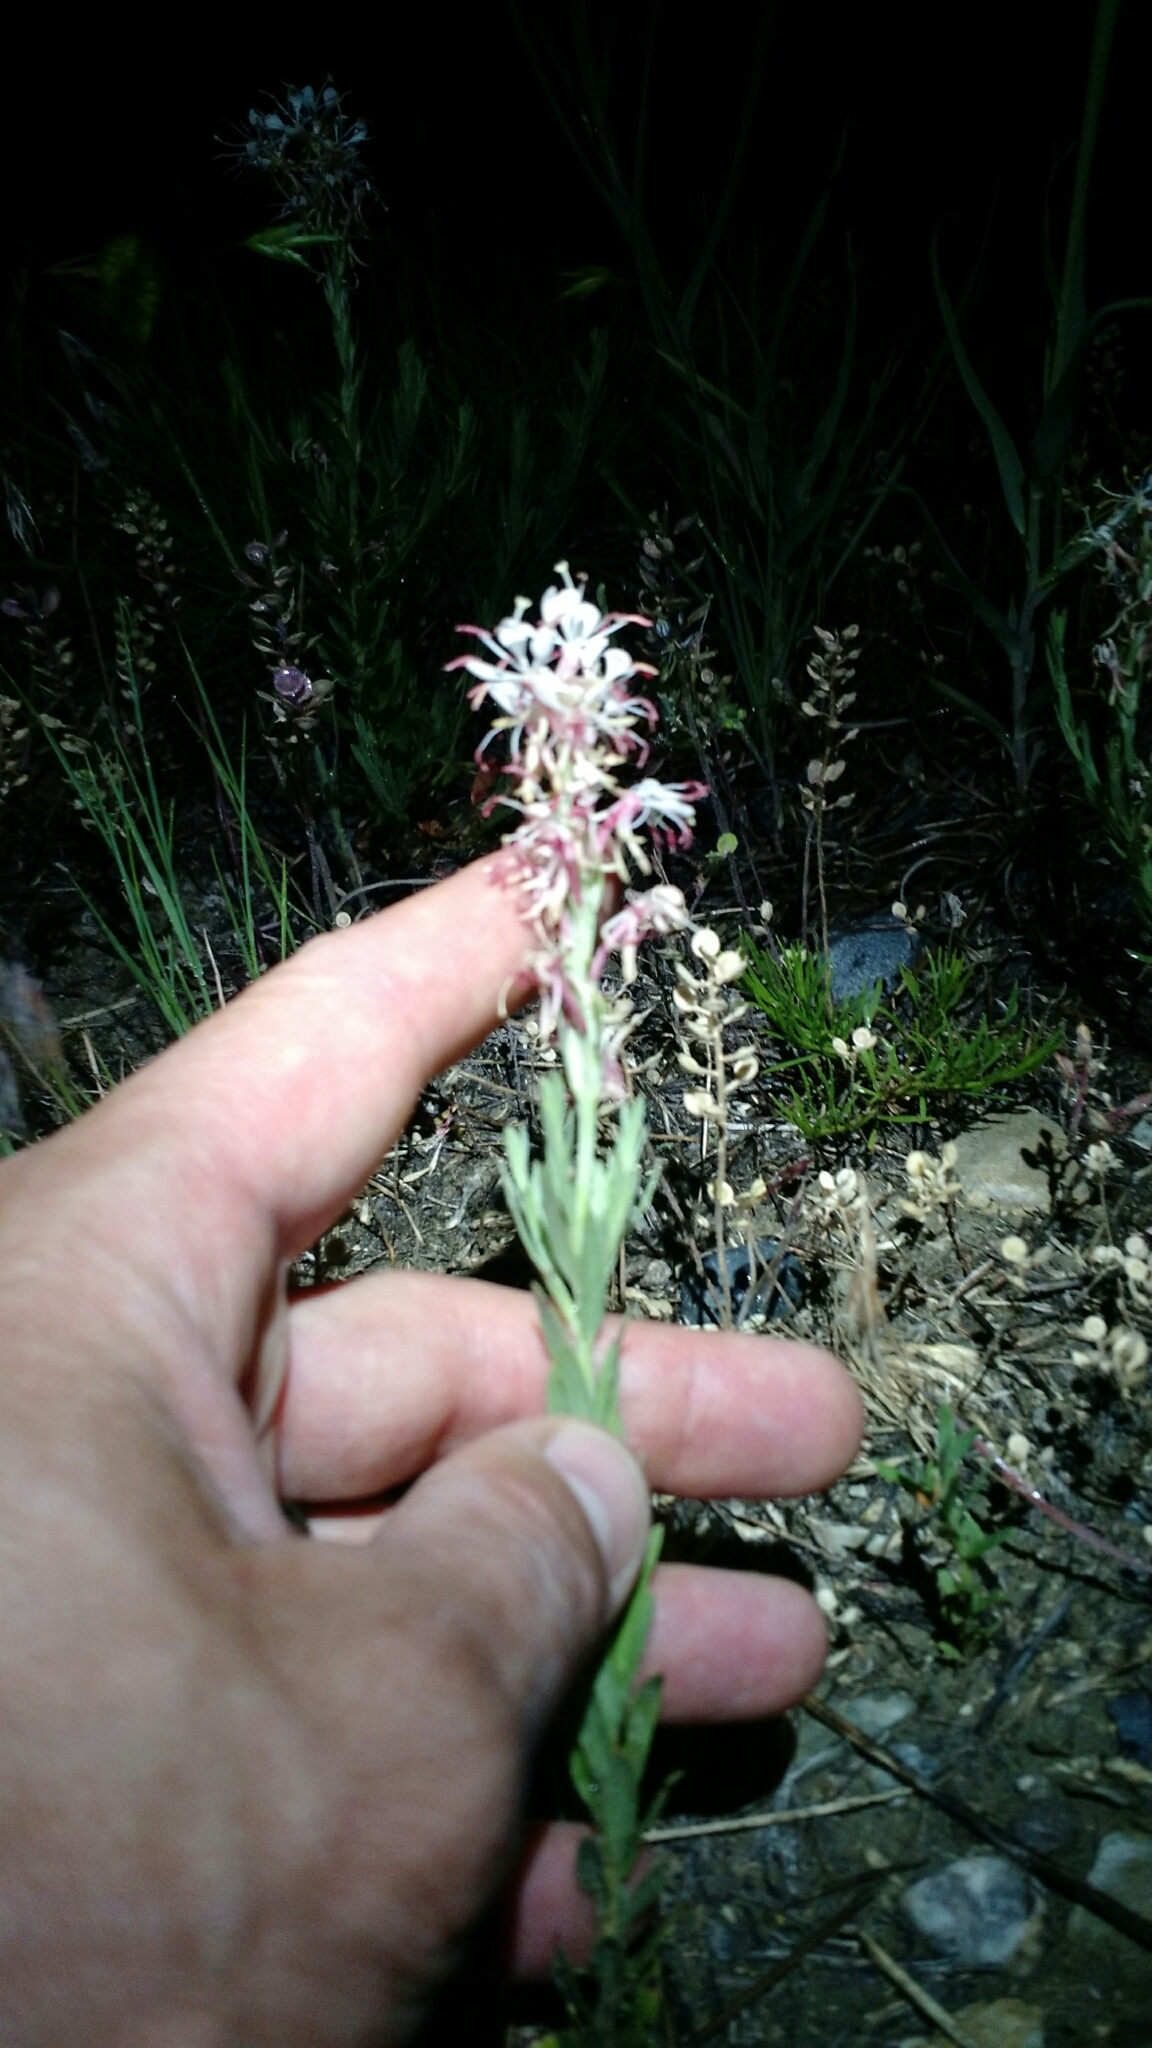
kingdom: Plantae
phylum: Tracheophyta
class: Magnoliopsida
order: Myrtales
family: Onagraceae
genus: Oenothera
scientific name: Oenothera suffrutescens
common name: Scarlet beeblossom
